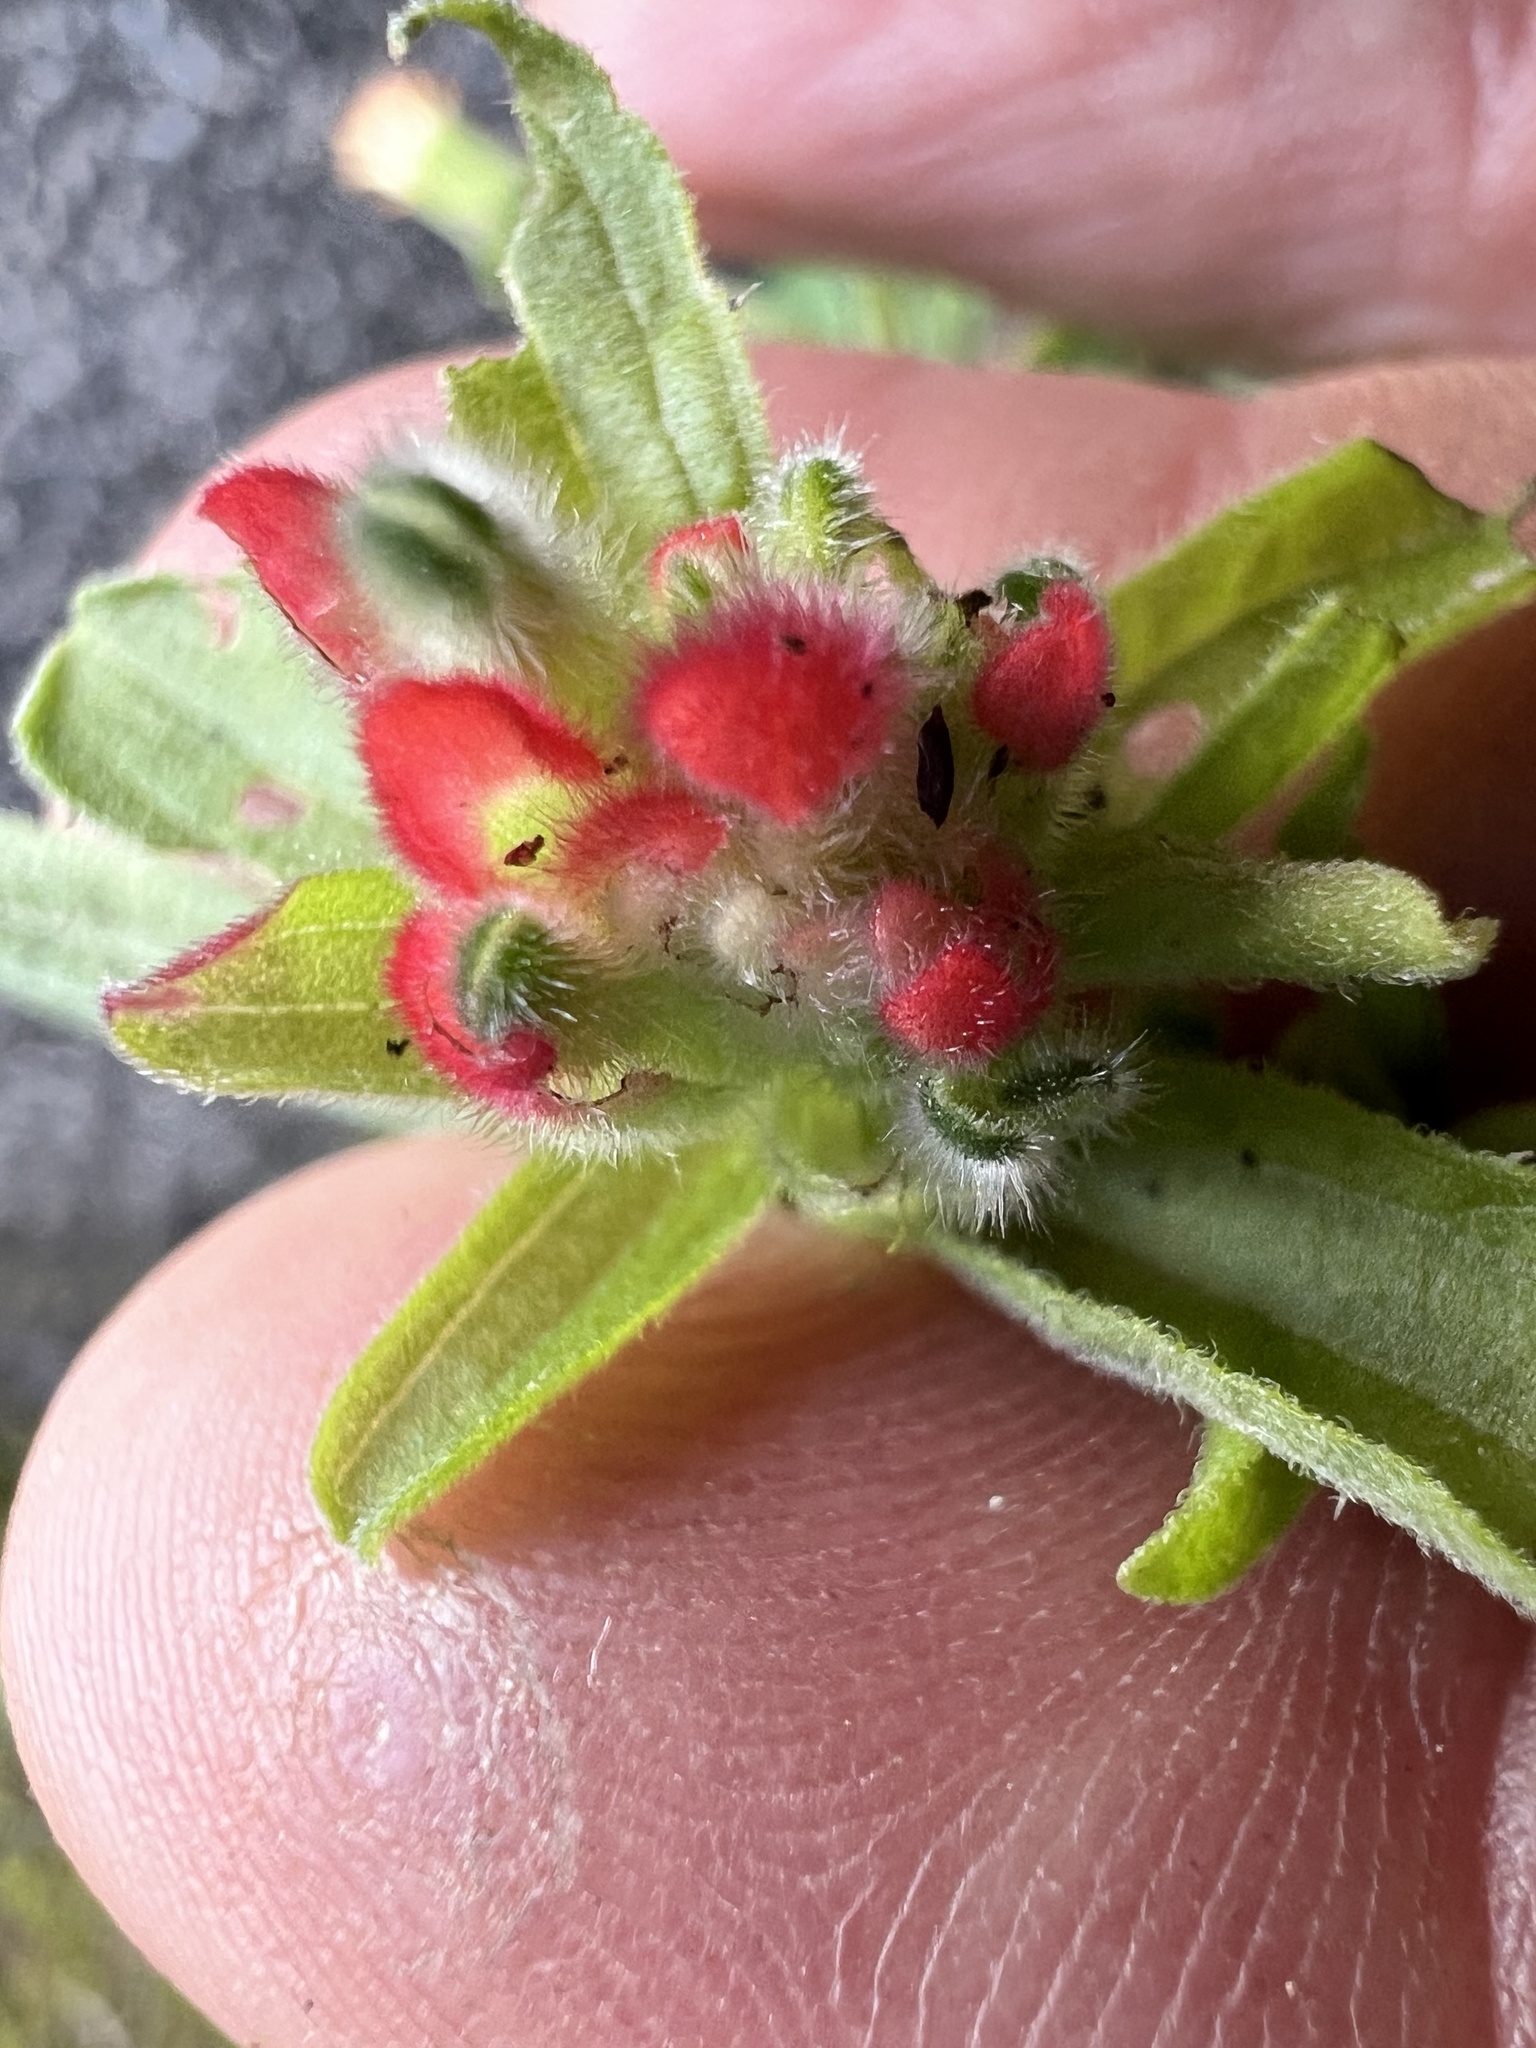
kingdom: Plantae
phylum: Tracheophyta
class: Magnoliopsida
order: Lamiales
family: Orobanchaceae
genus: Castilleja
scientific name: Castilleja arvensis
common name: Indian paintbrush
